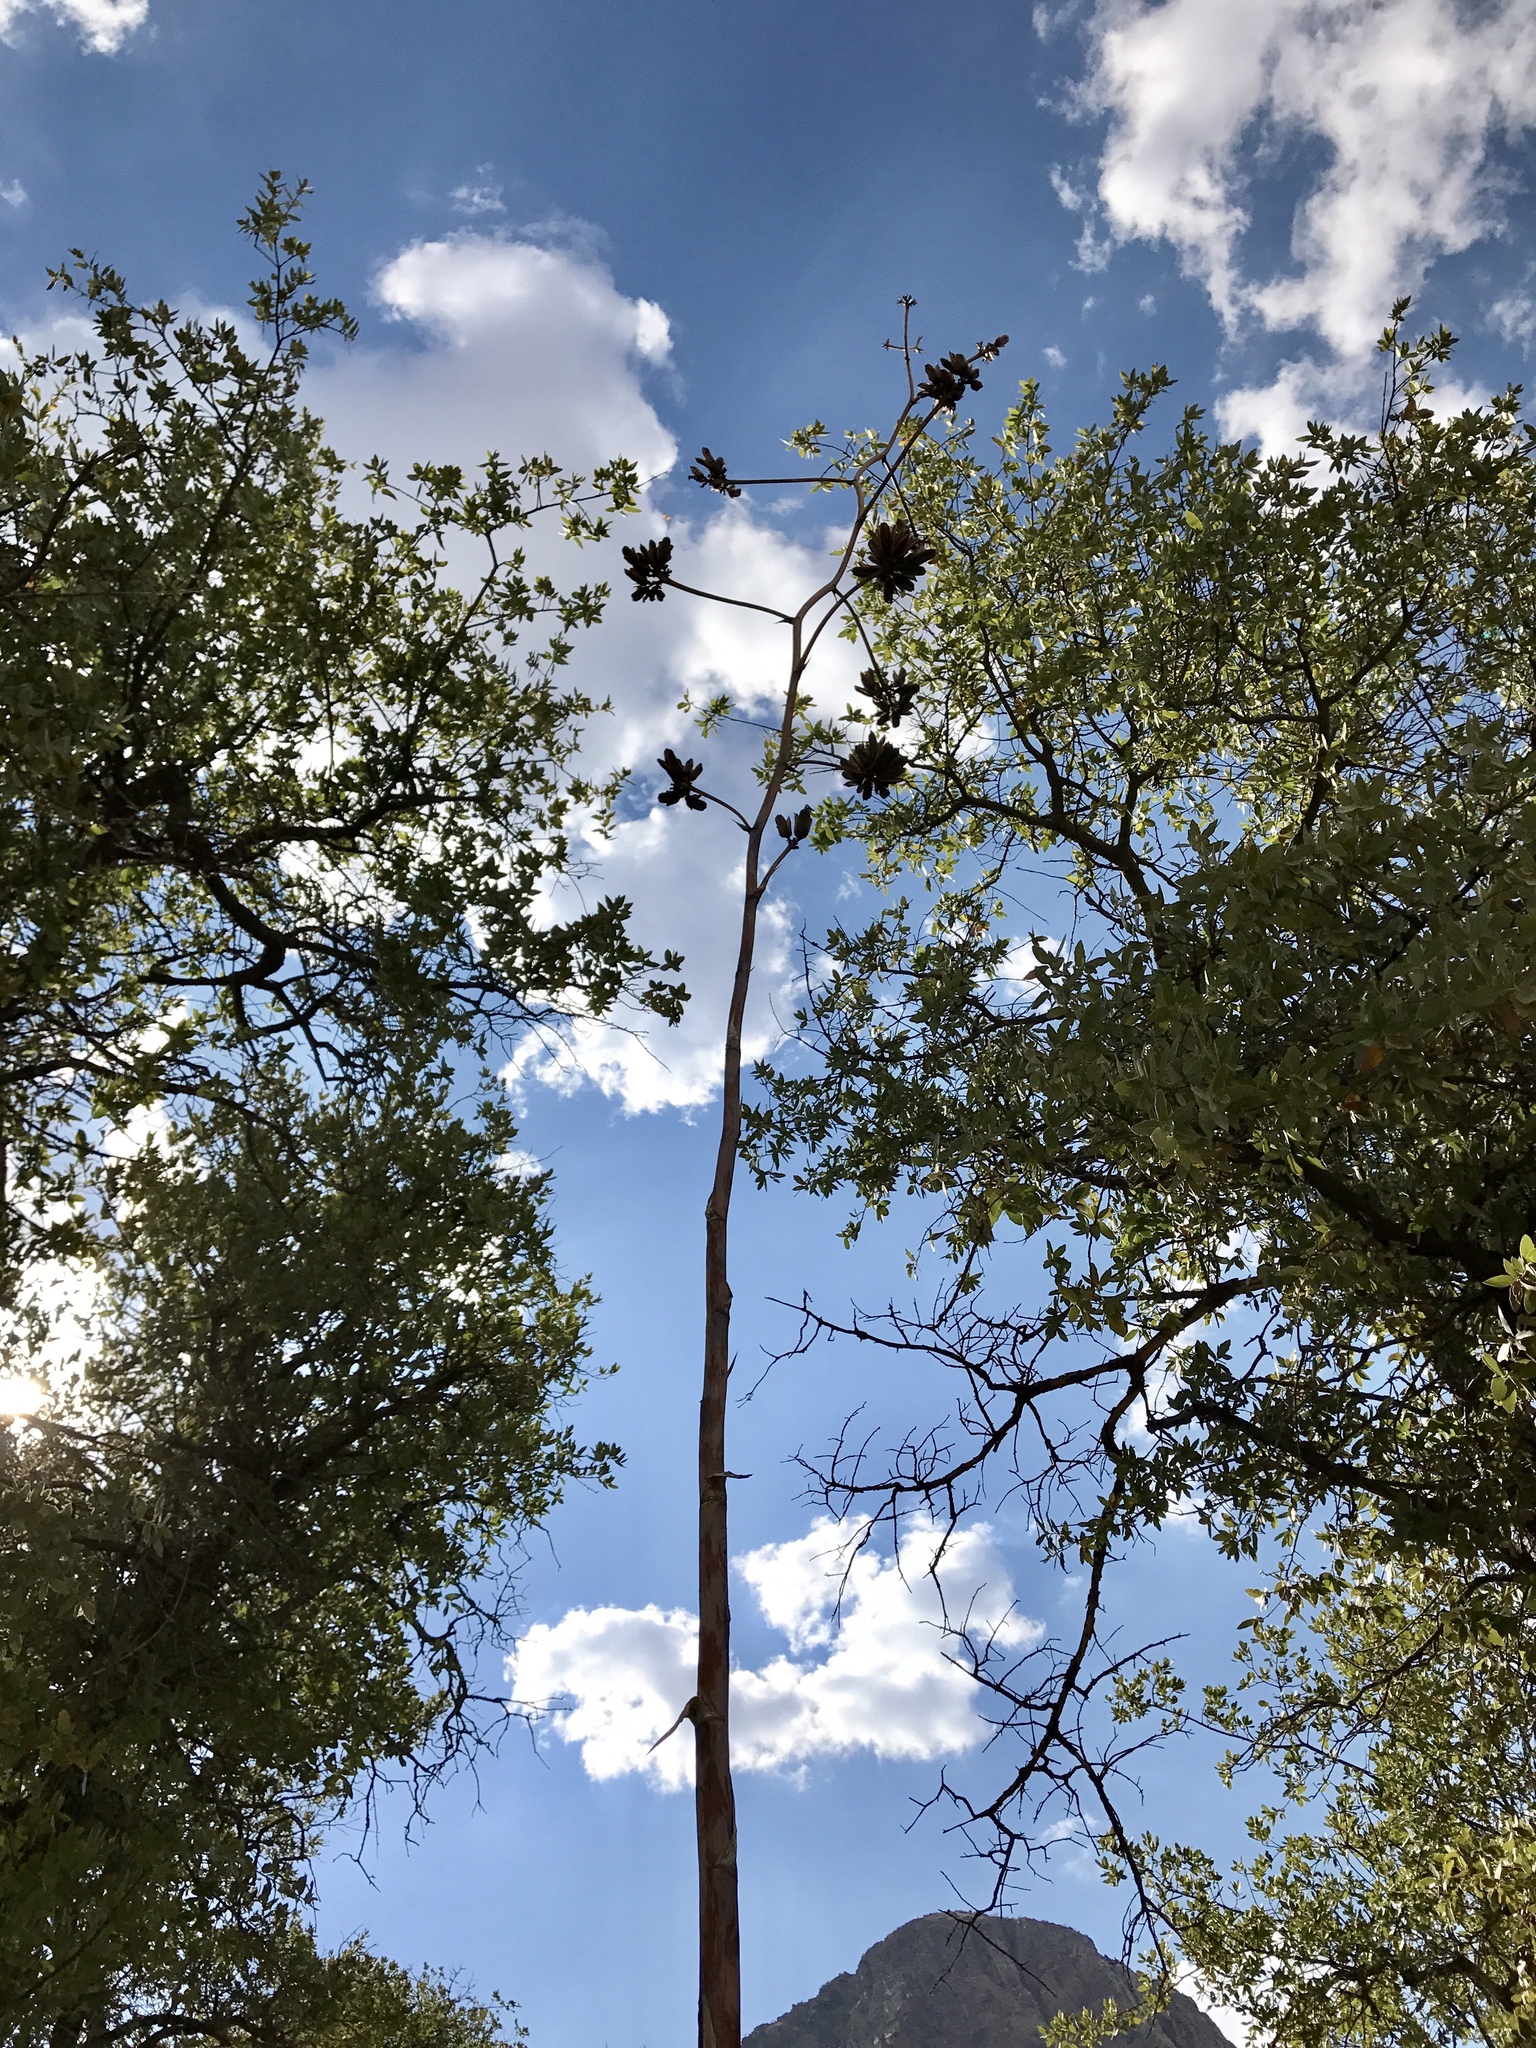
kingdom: Plantae
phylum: Tracheophyta
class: Liliopsida
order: Asparagales
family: Asparagaceae
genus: Agave
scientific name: Agave palmeri
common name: Palmer agave
